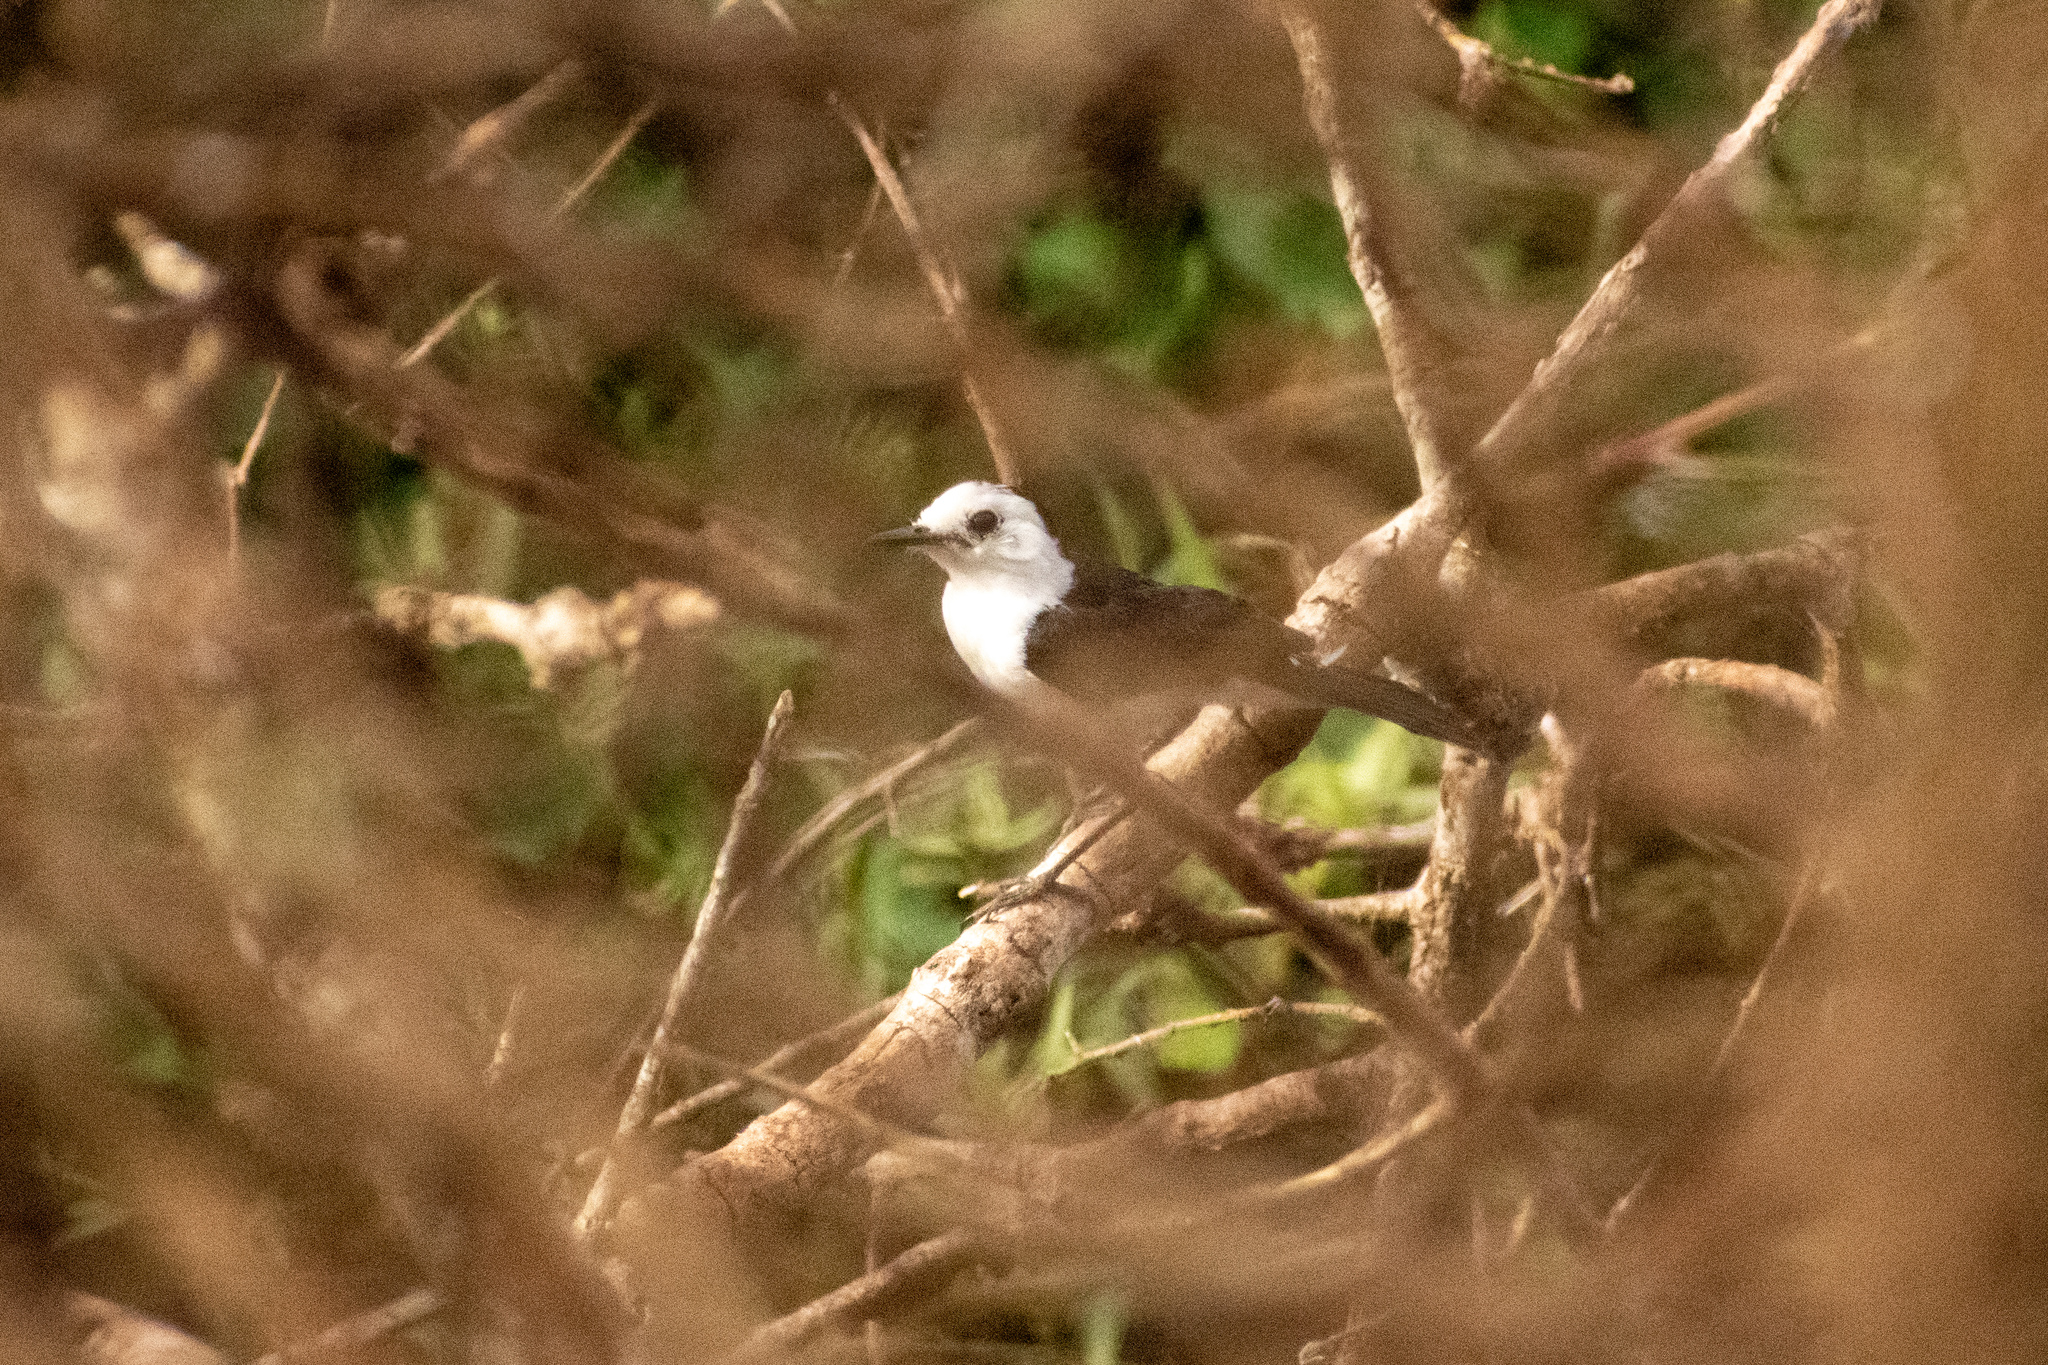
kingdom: Animalia
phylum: Chordata
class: Aves
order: Passeriformes
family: Tyrannidae
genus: Fluvicola
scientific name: Fluvicola pica
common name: Pied water-tyrant
